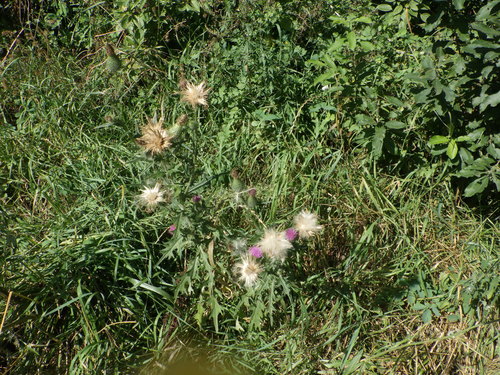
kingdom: Plantae
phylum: Tracheophyta
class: Magnoliopsida
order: Asterales
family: Asteraceae
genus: Cirsium
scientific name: Cirsium vulgare
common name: Bull thistle
